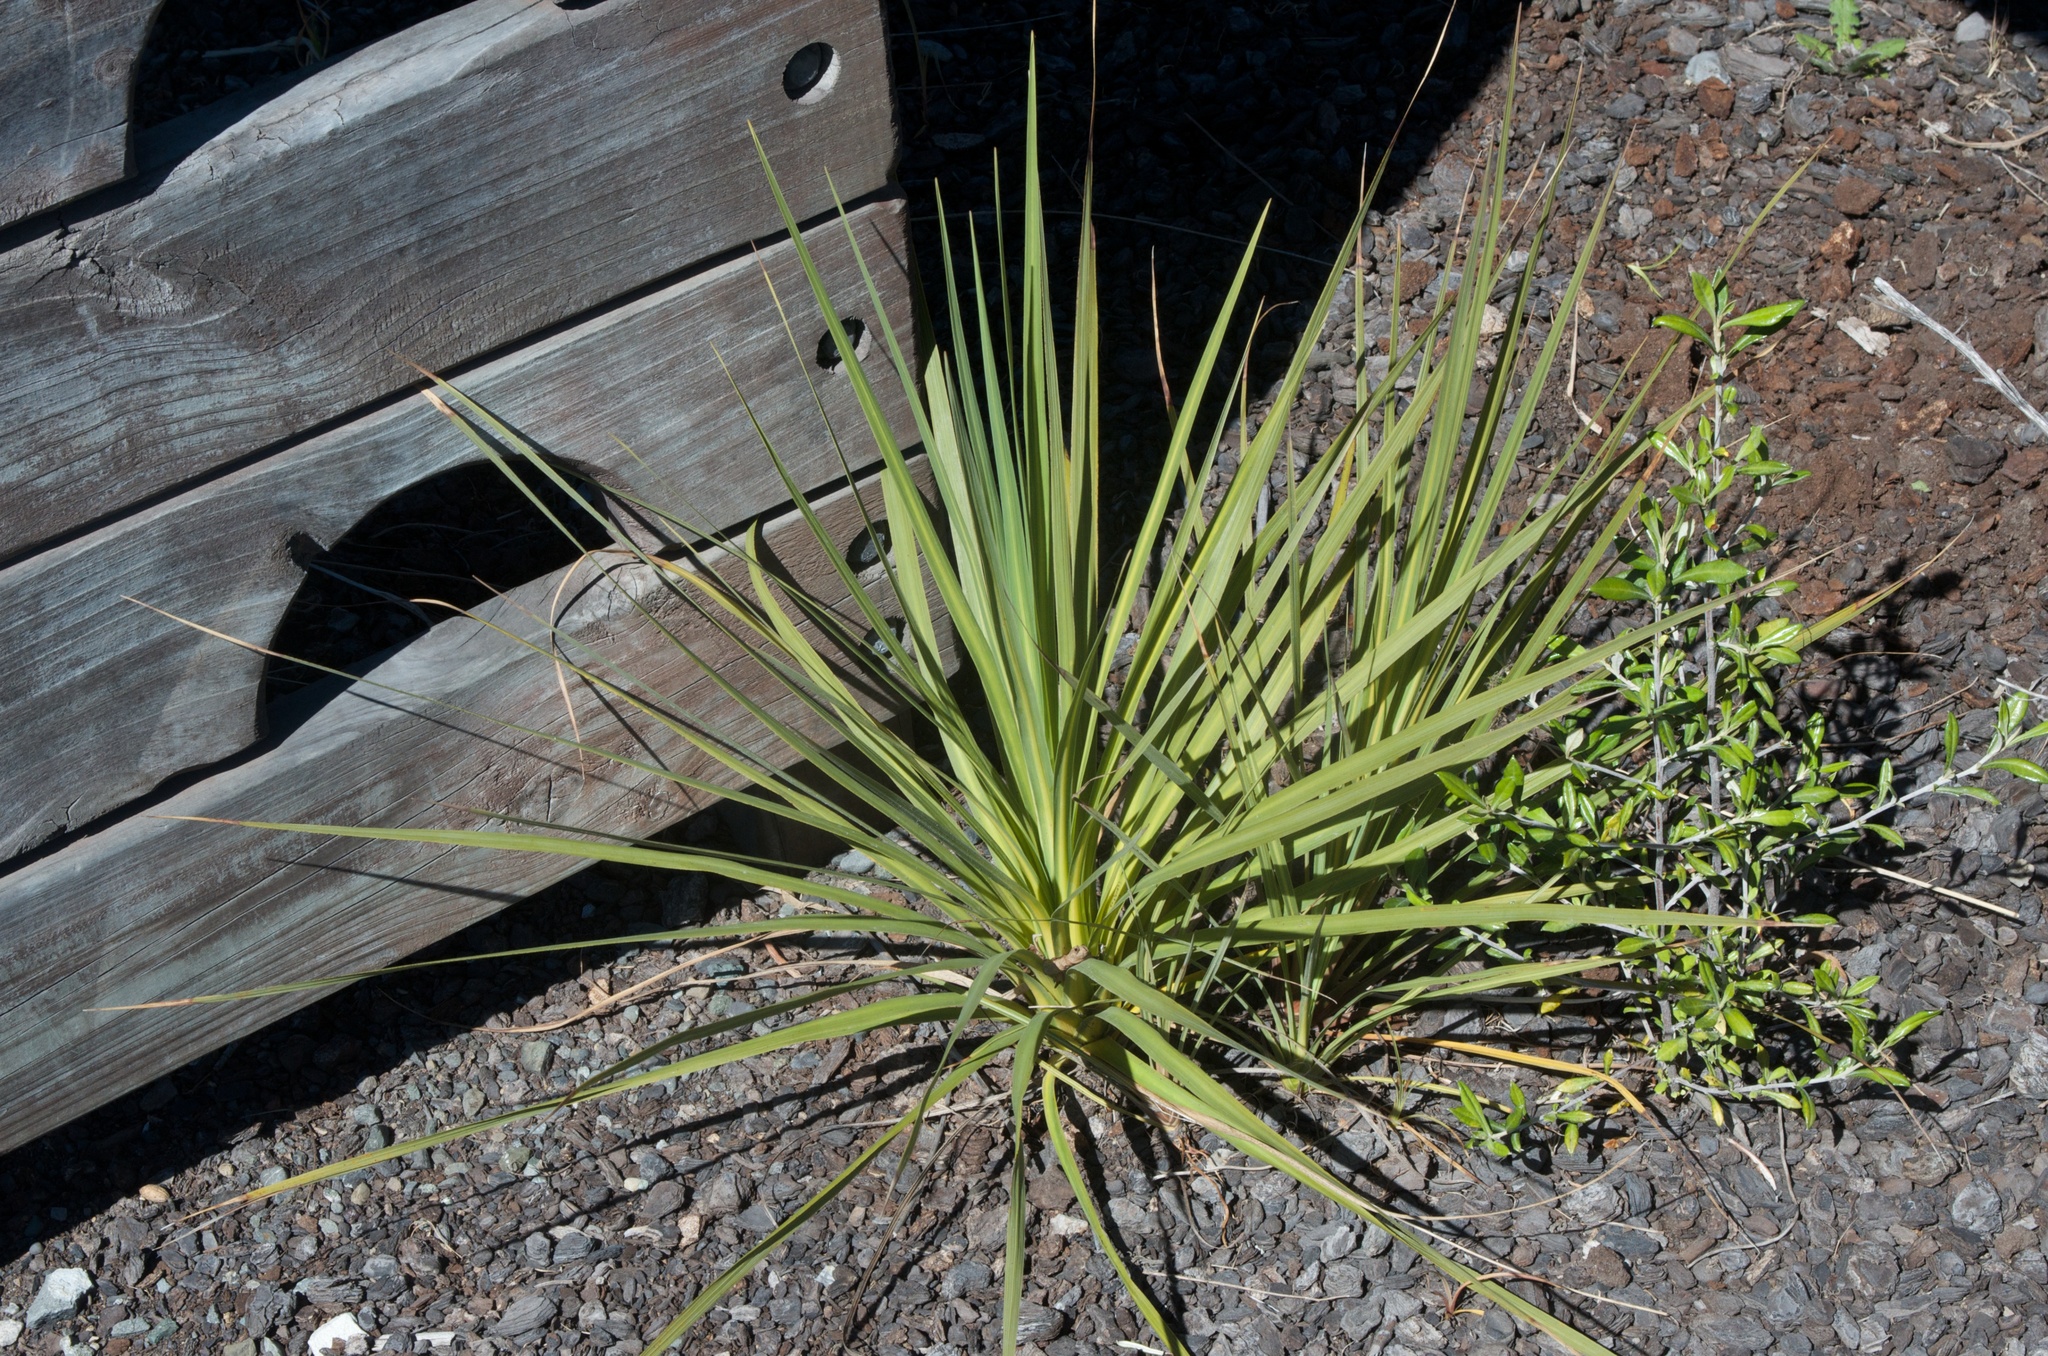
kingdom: Plantae
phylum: Tracheophyta
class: Liliopsida
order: Asparagales
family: Asparagaceae
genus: Cordyline
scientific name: Cordyline australis
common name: Cabbage-palm
